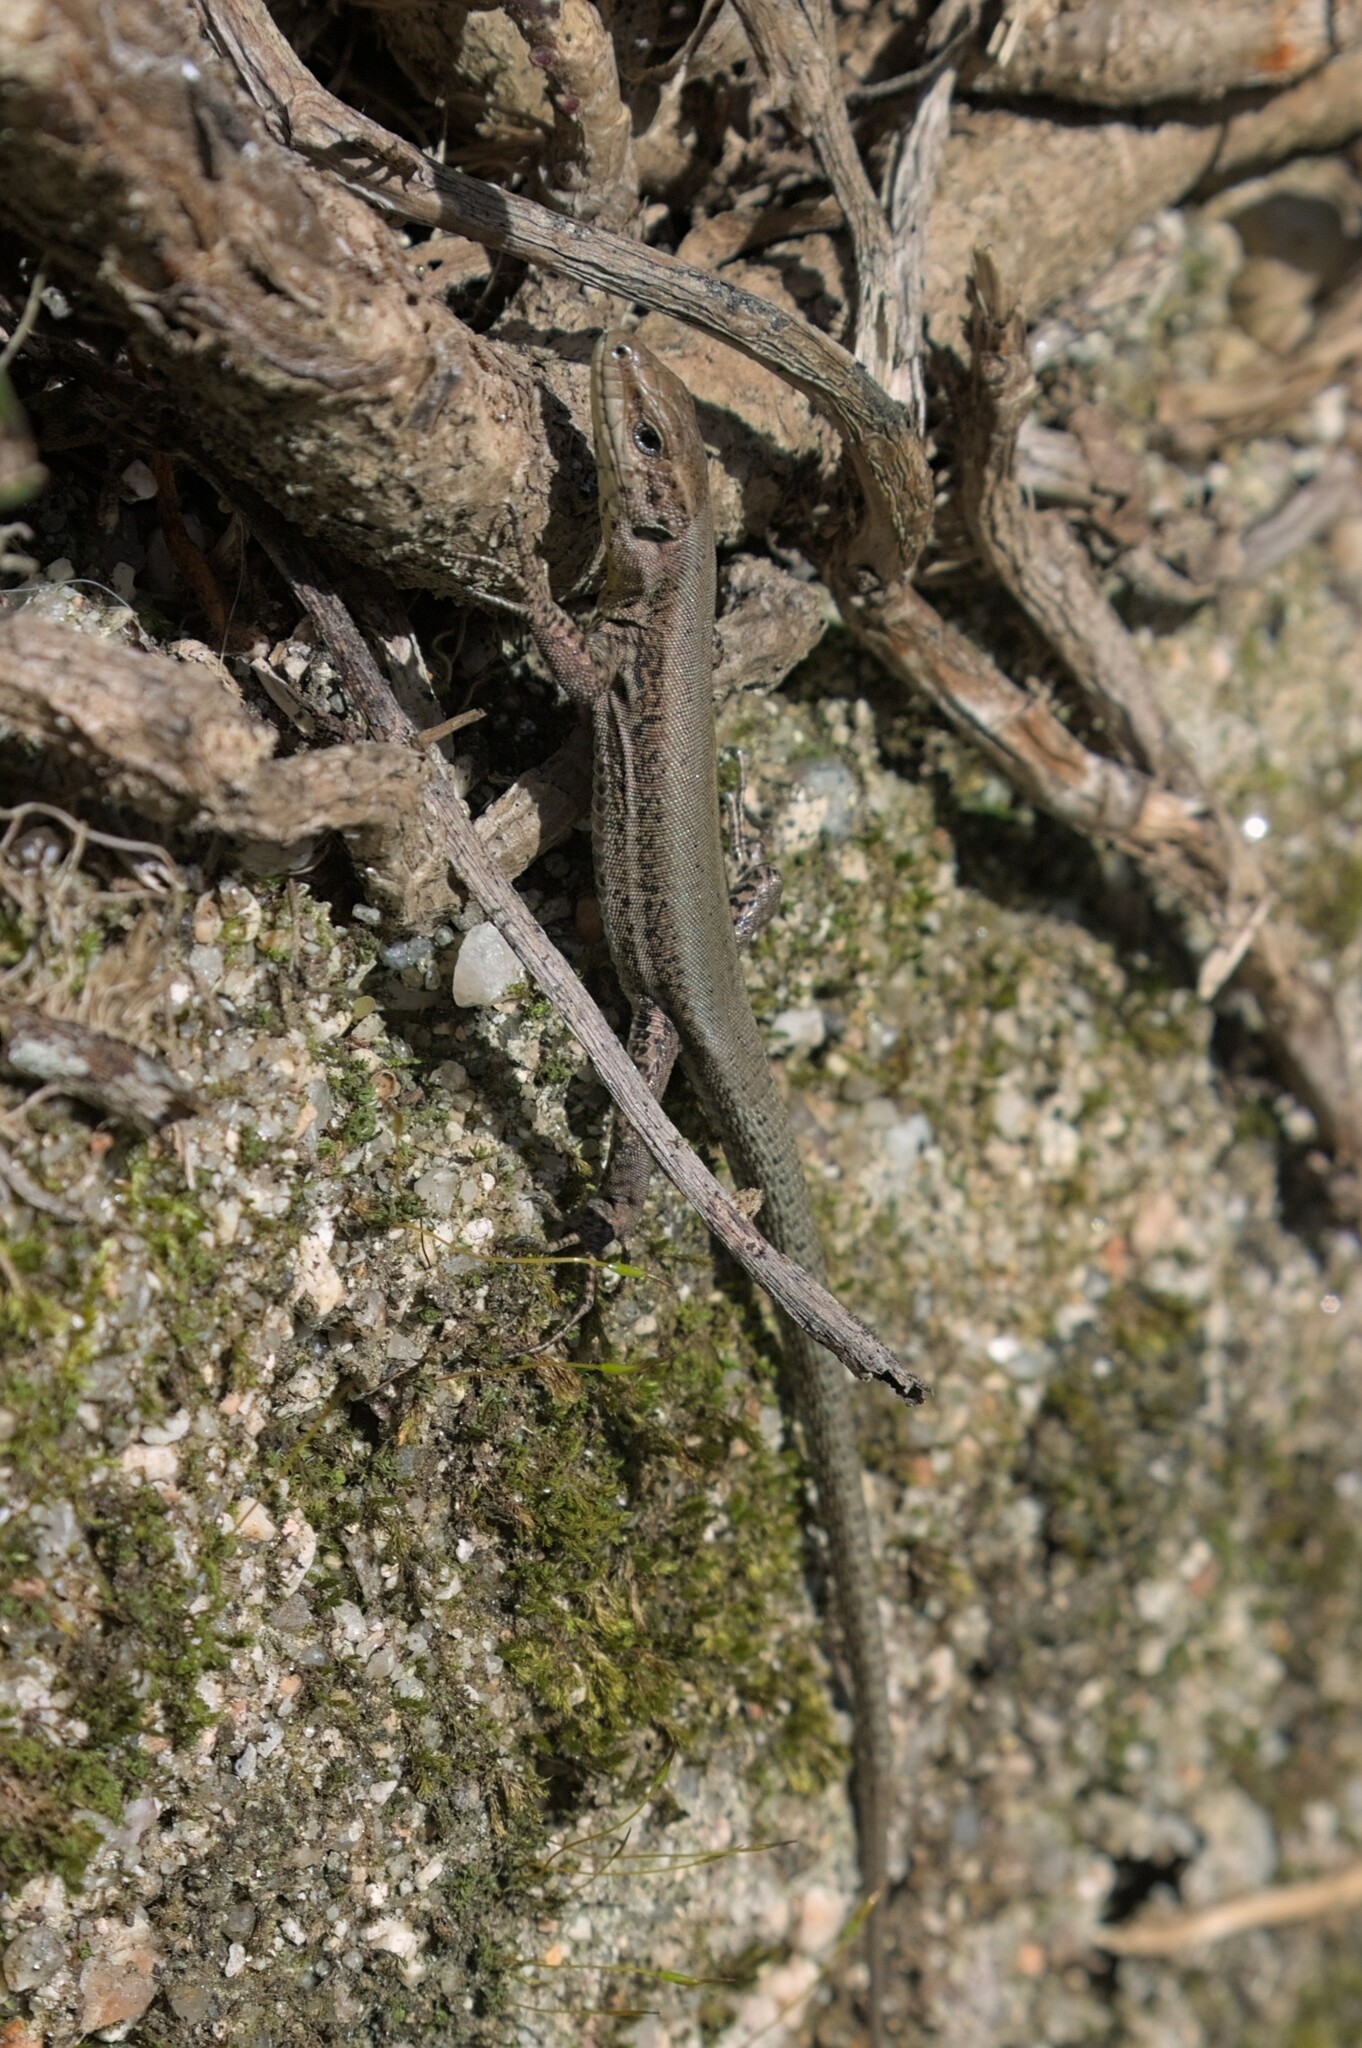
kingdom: Animalia
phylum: Chordata
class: Squamata
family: Lacertidae
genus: Podarcis
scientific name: Podarcis bocagei
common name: Bocage's wall lizard
